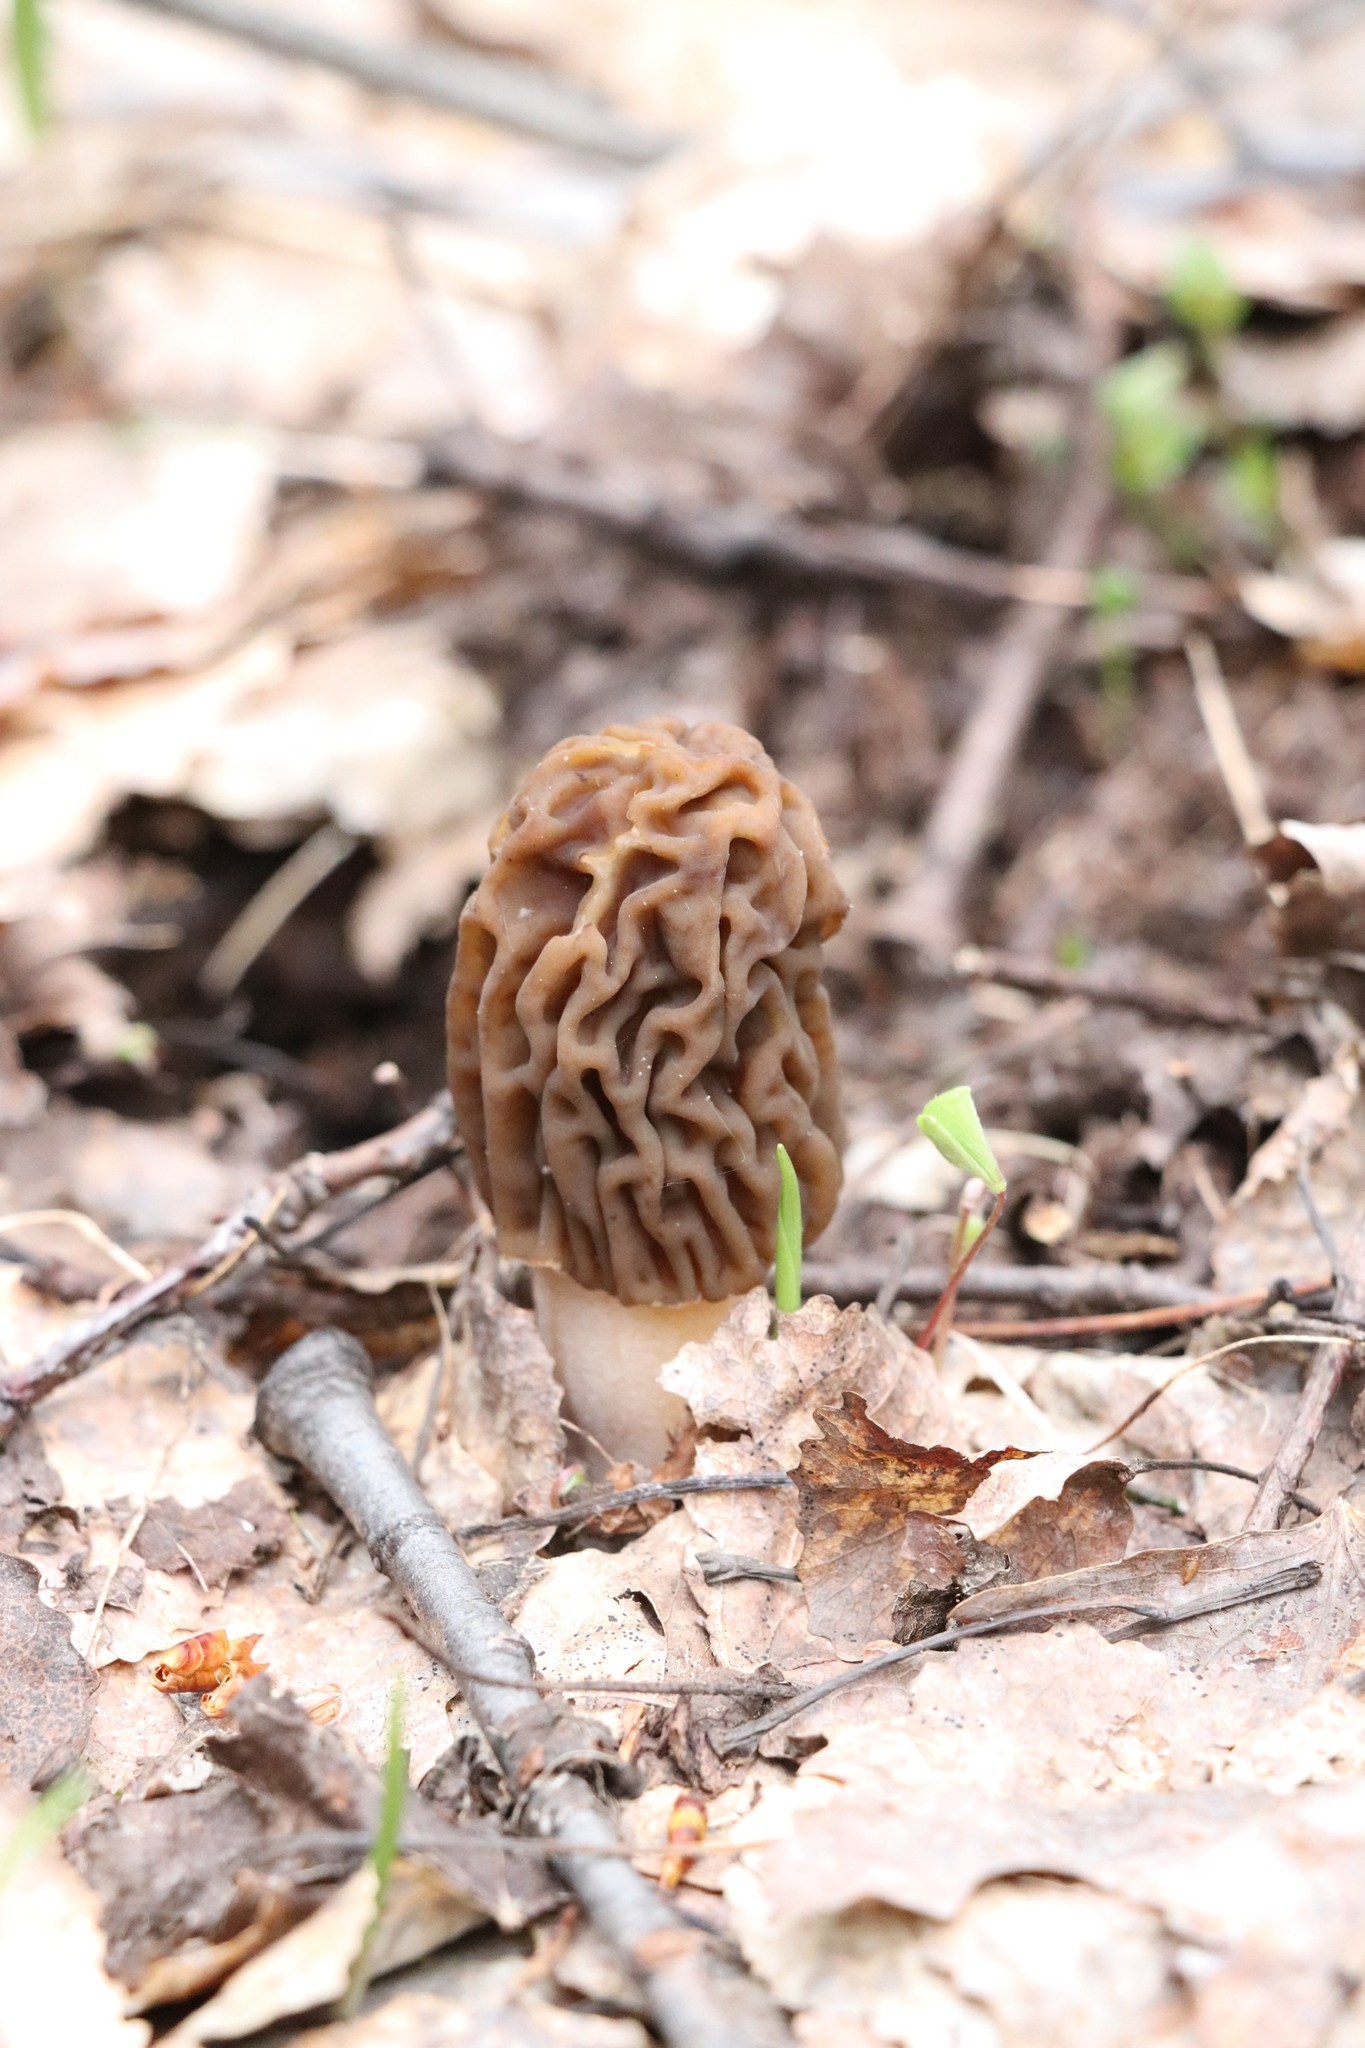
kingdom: Fungi
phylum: Ascomycota
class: Pezizomycetes
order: Pezizales
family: Morchellaceae
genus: Verpa
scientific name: Verpa bohemica
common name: Wrinkled thimble morel
